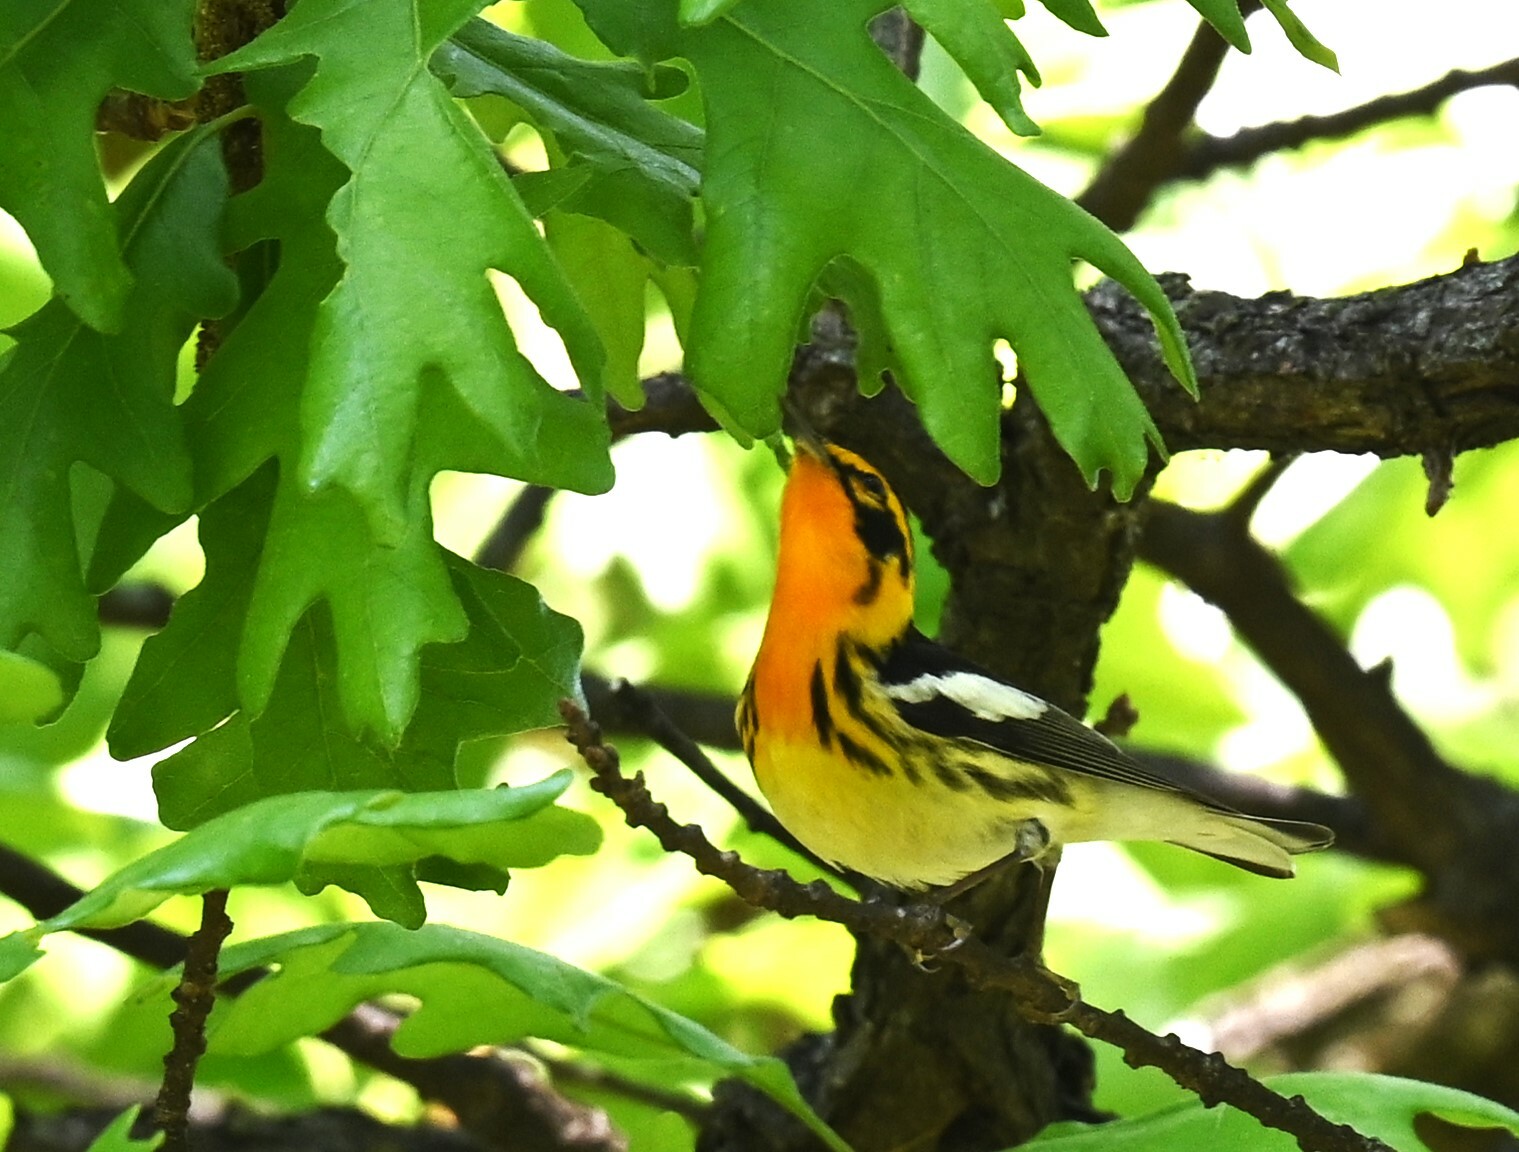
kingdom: Animalia
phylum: Chordata
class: Aves
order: Passeriformes
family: Parulidae
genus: Setophaga
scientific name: Setophaga fusca
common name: Blackburnian warbler
